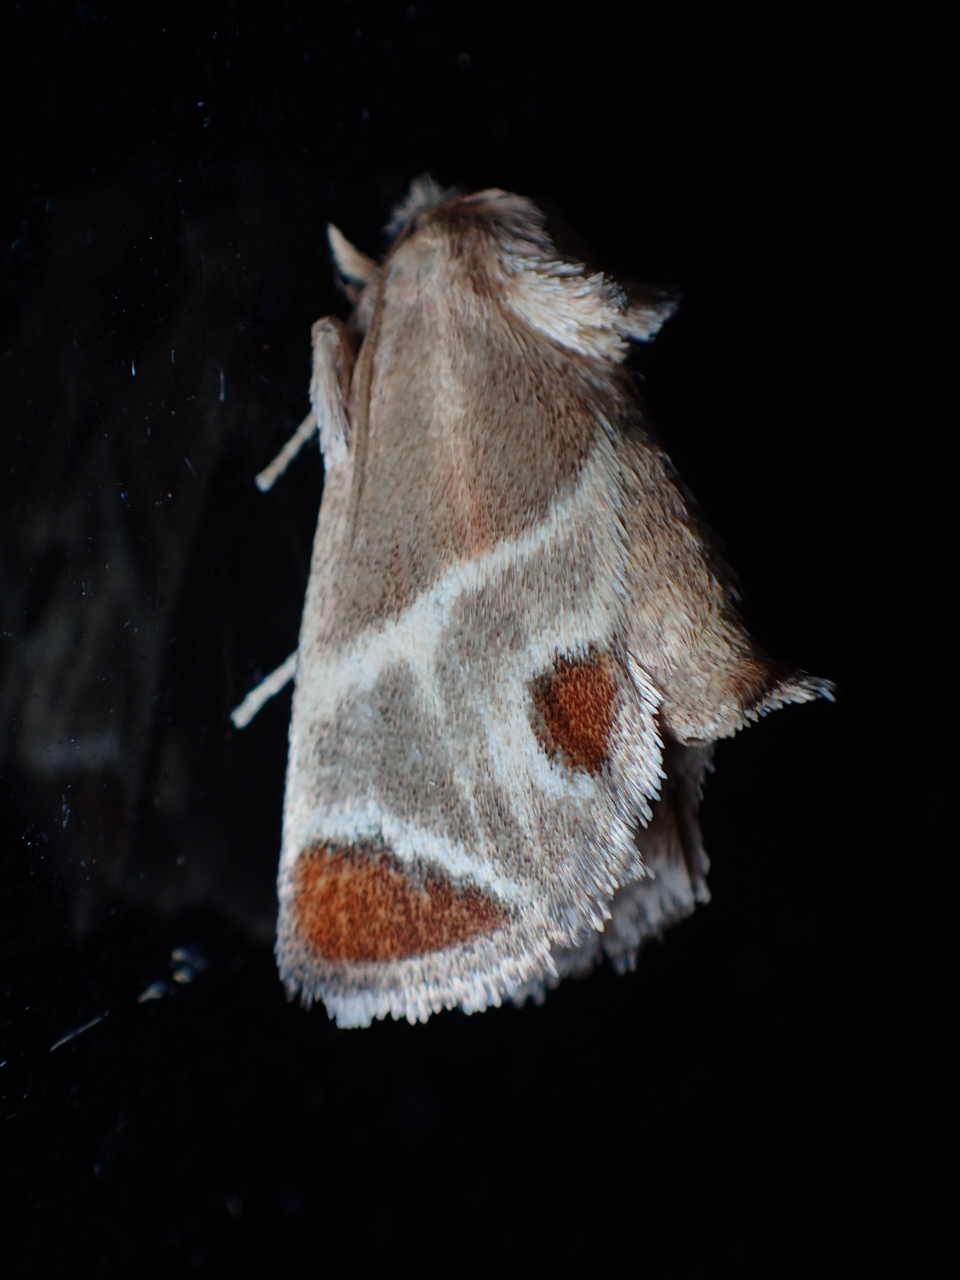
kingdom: Animalia
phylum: Arthropoda
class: Insecta
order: Lepidoptera
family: Limacodidae
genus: Apoda
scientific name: Apoda biguttata
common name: Shagreened slug moth
